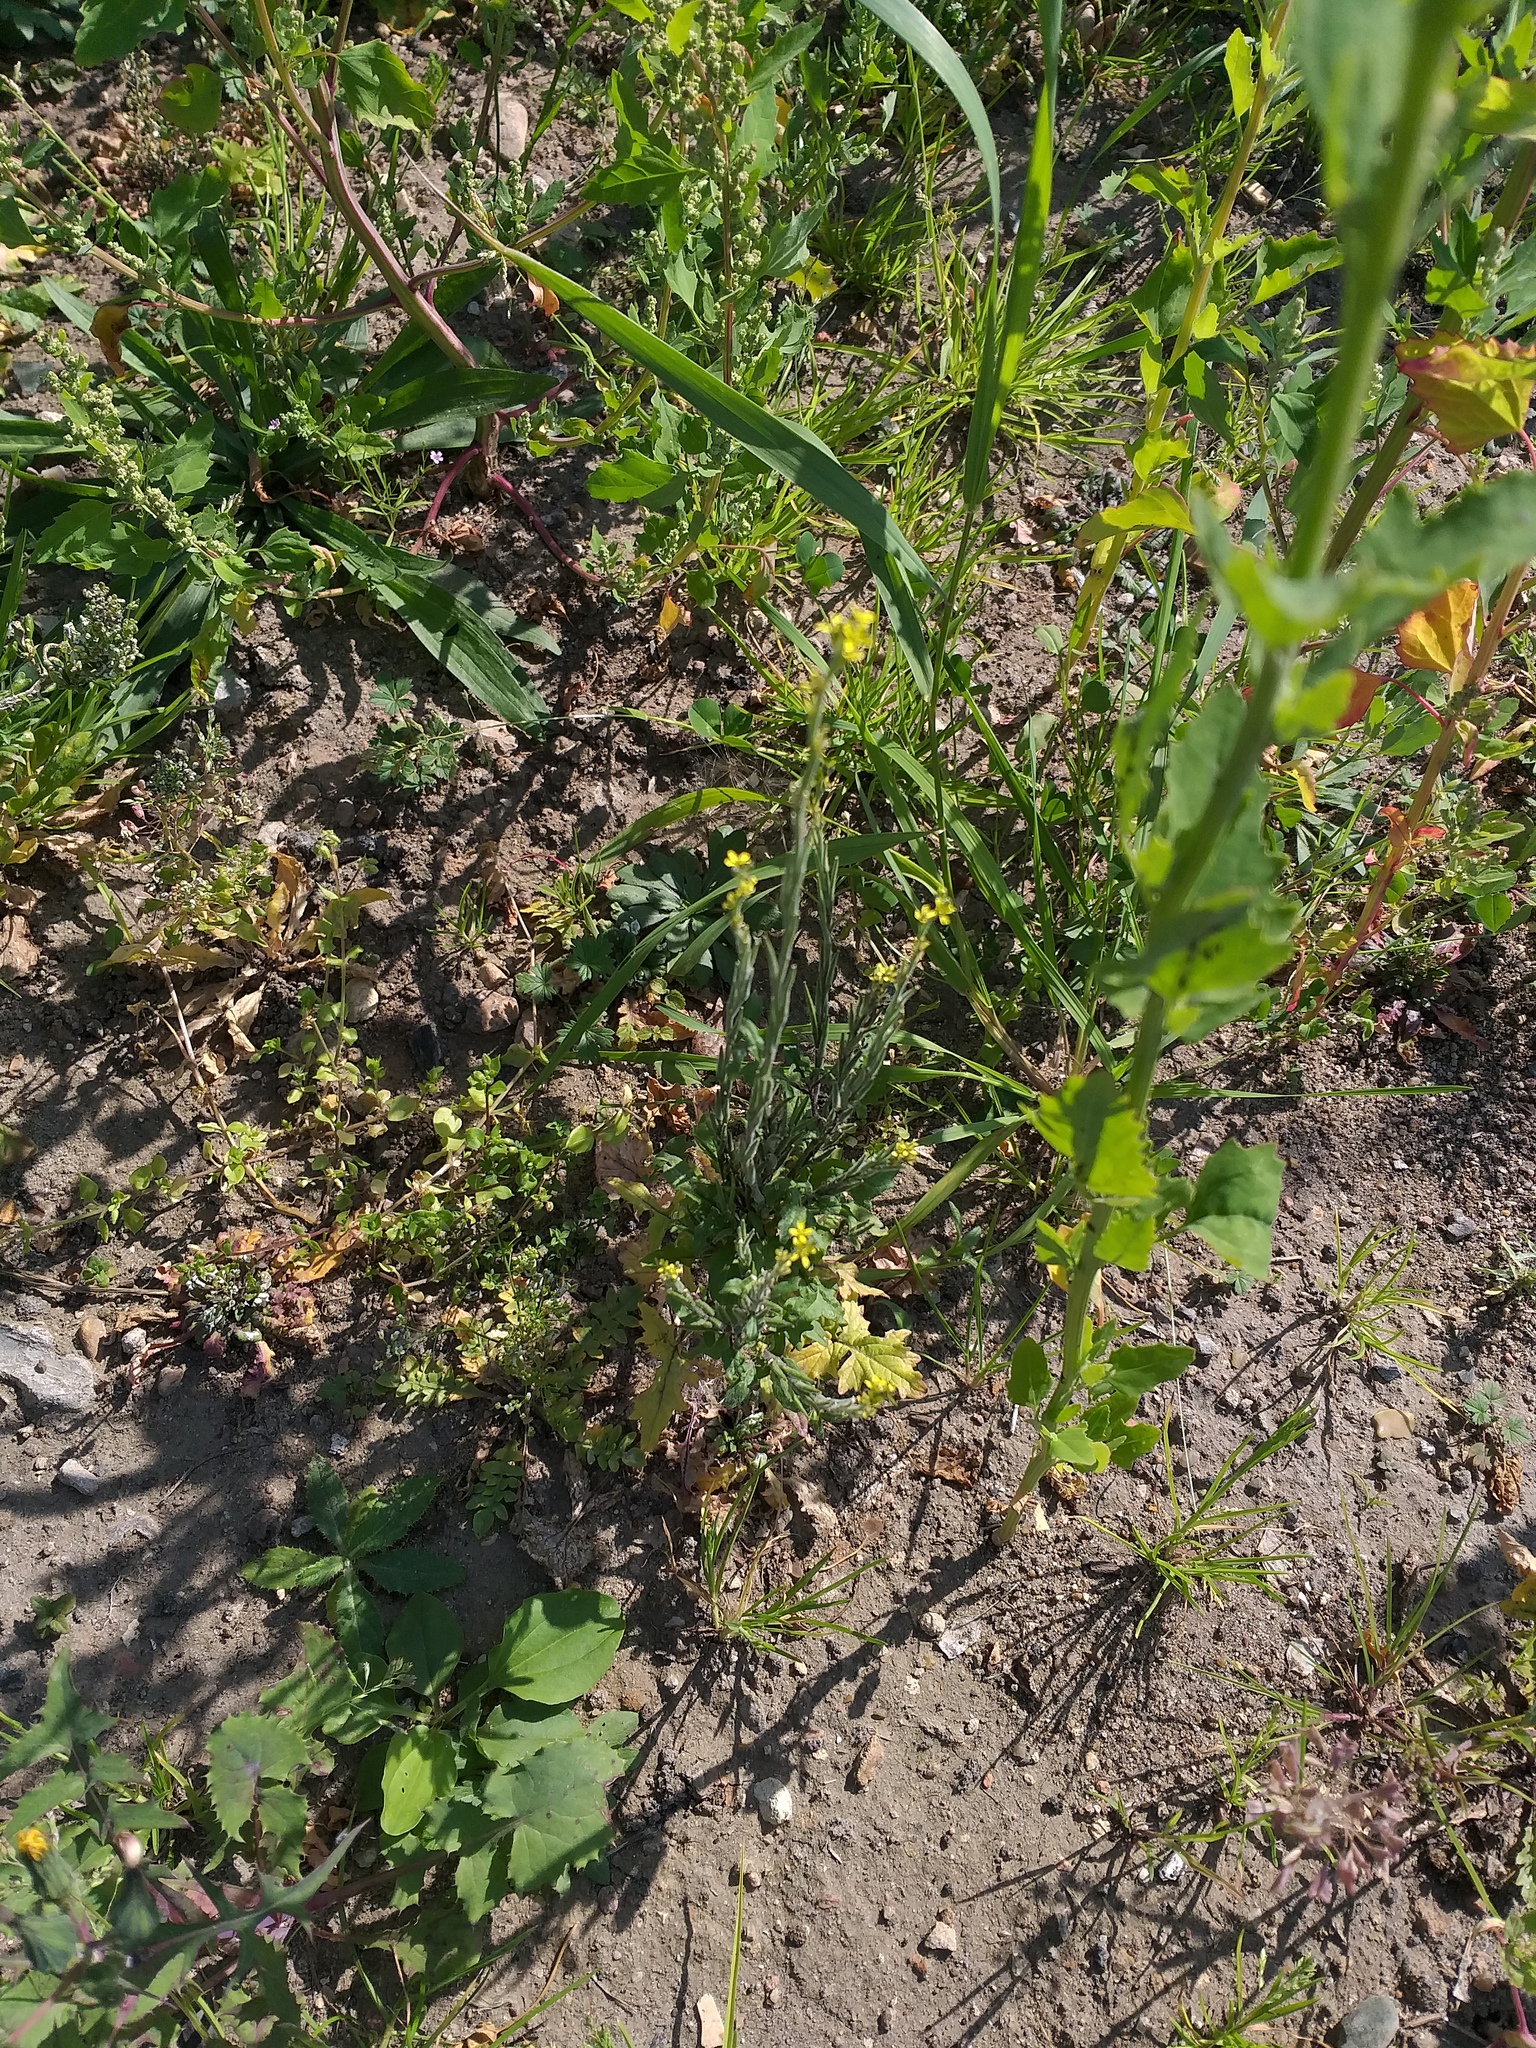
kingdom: Plantae
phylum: Tracheophyta
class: Magnoliopsida
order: Brassicales
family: Brassicaceae
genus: Sisymbrium
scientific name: Sisymbrium officinale
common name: Hedge mustard
